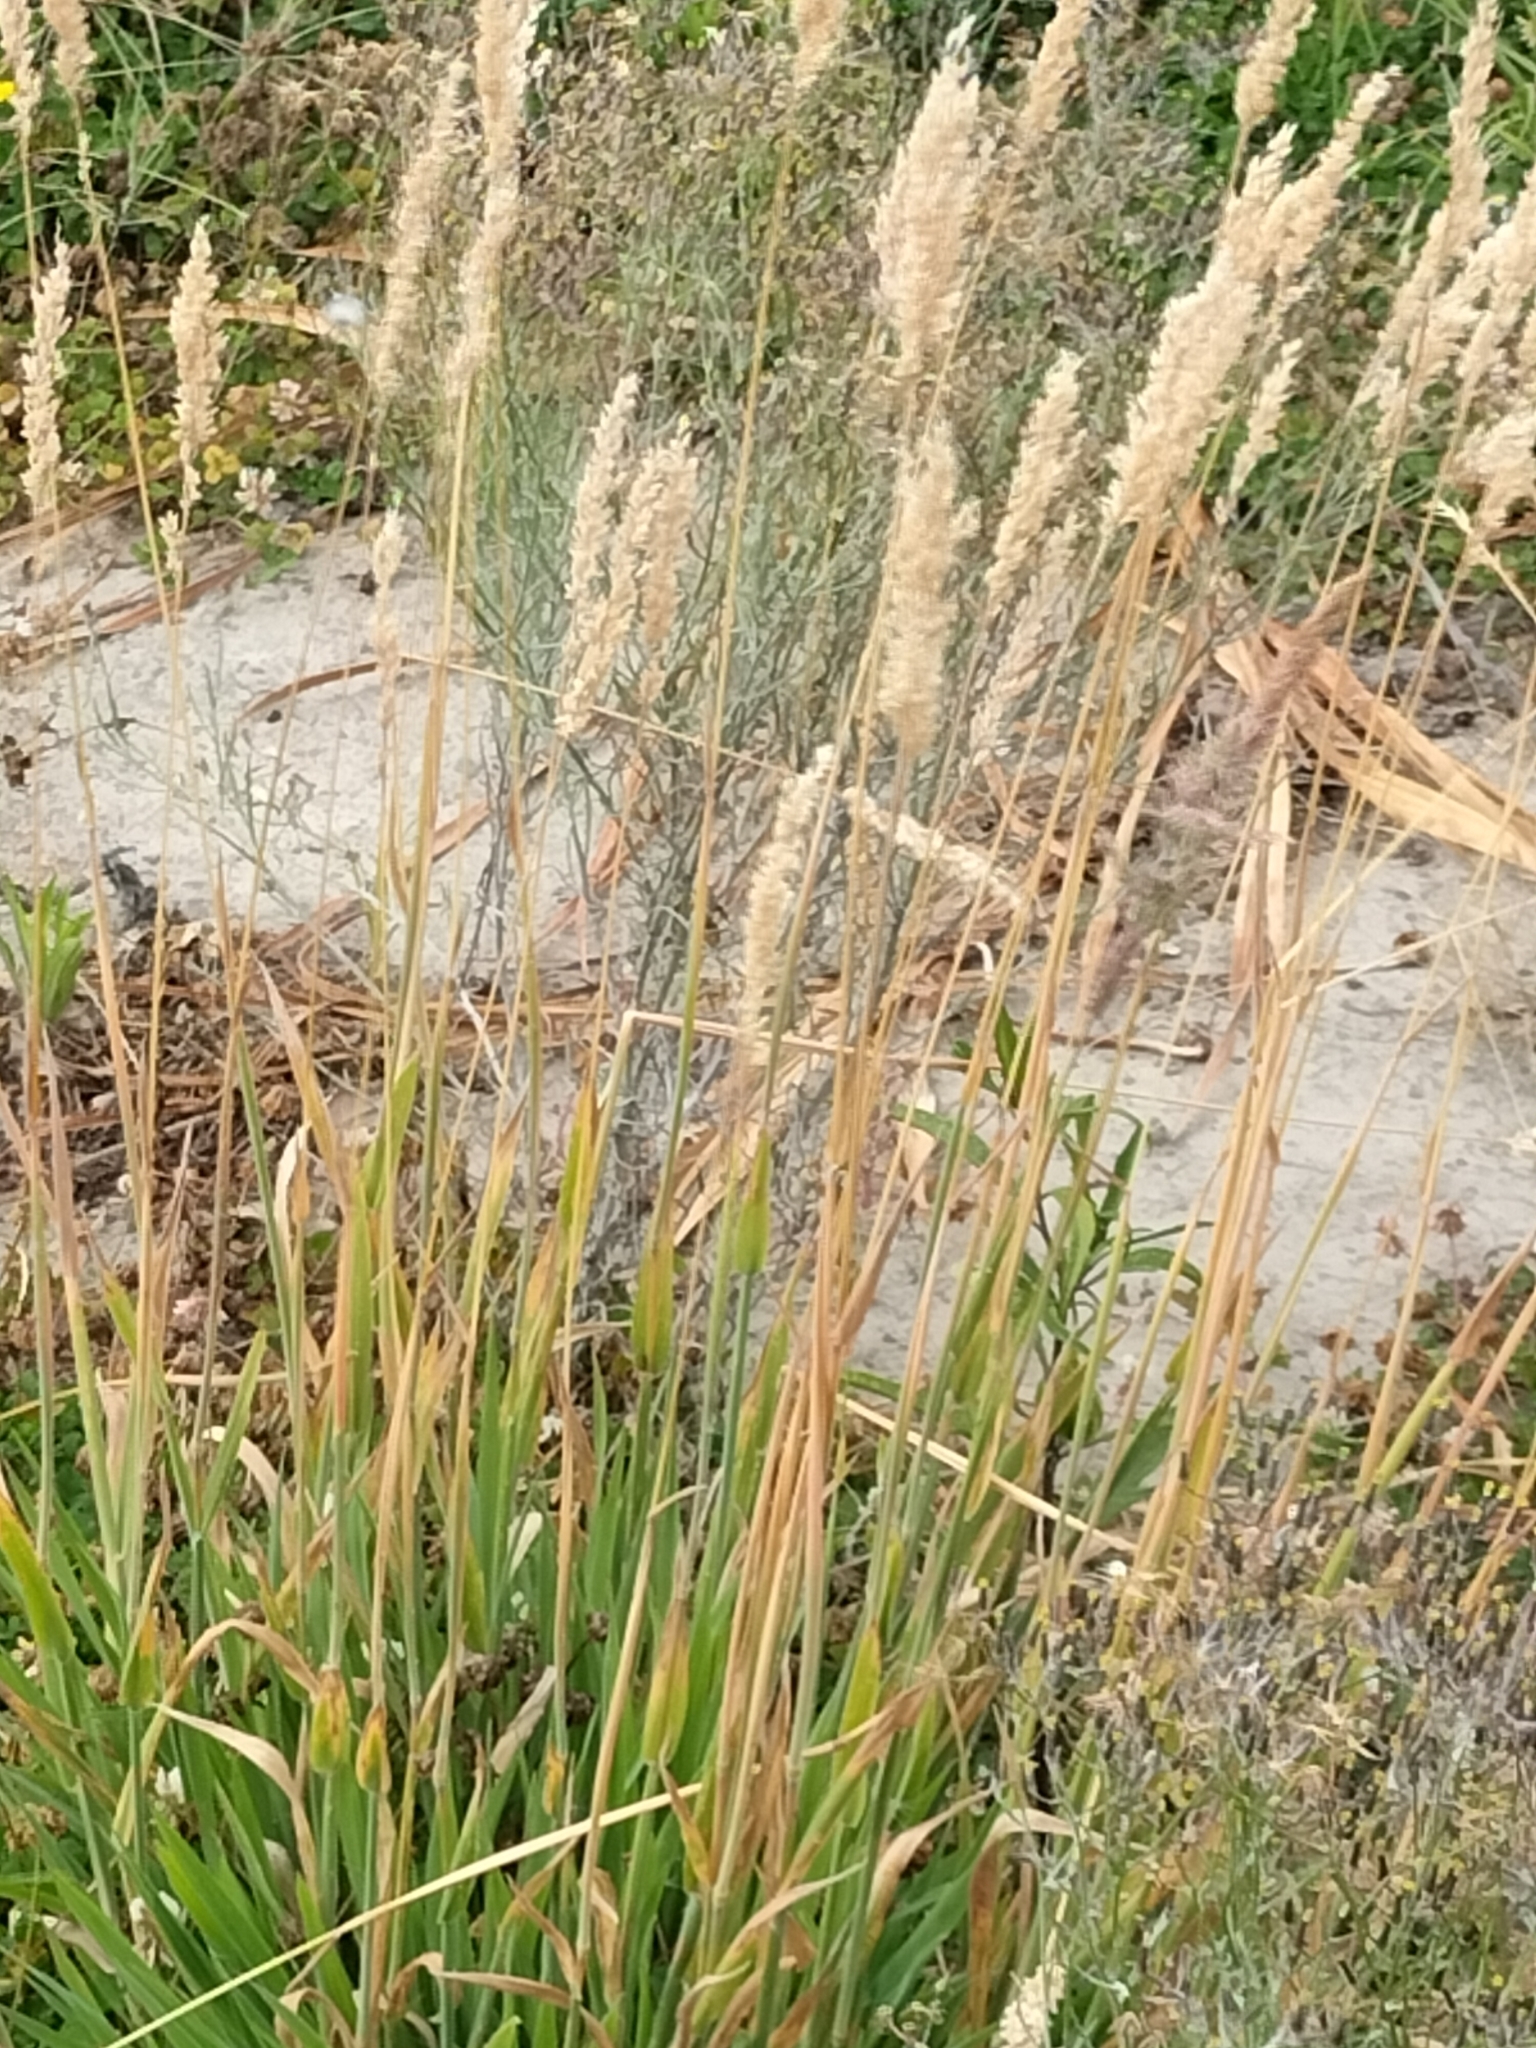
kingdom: Plantae
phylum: Tracheophyta
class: Liliopsida
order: Poales
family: Poaceae
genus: Holcus
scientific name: Holcus lanatus
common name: Yorkshire-fog
